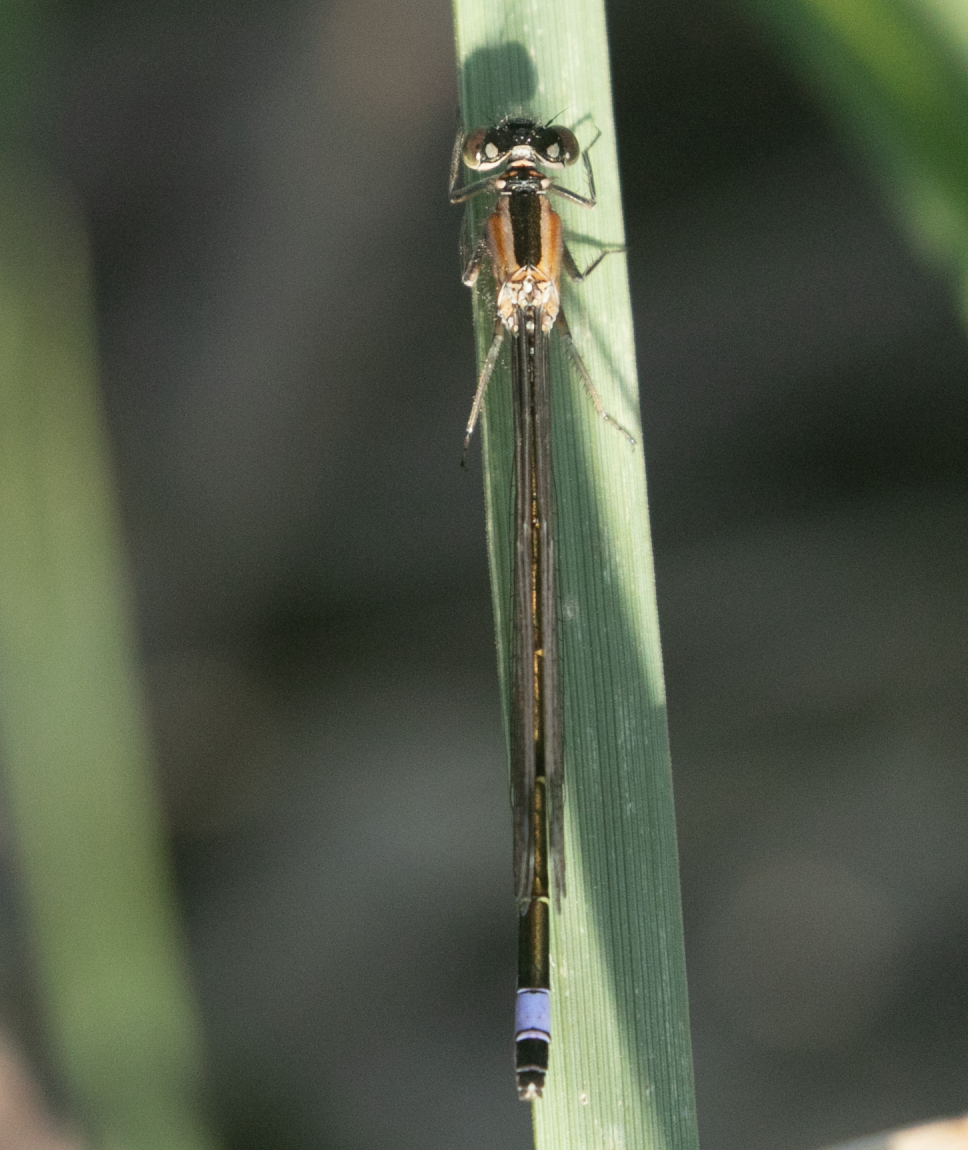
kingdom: Animalia
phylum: Arthropoda
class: Insecta
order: Odonata
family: Coenagrionidae
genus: Ischnura
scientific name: Ischnura elegans
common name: Blue-tailed damselfly
